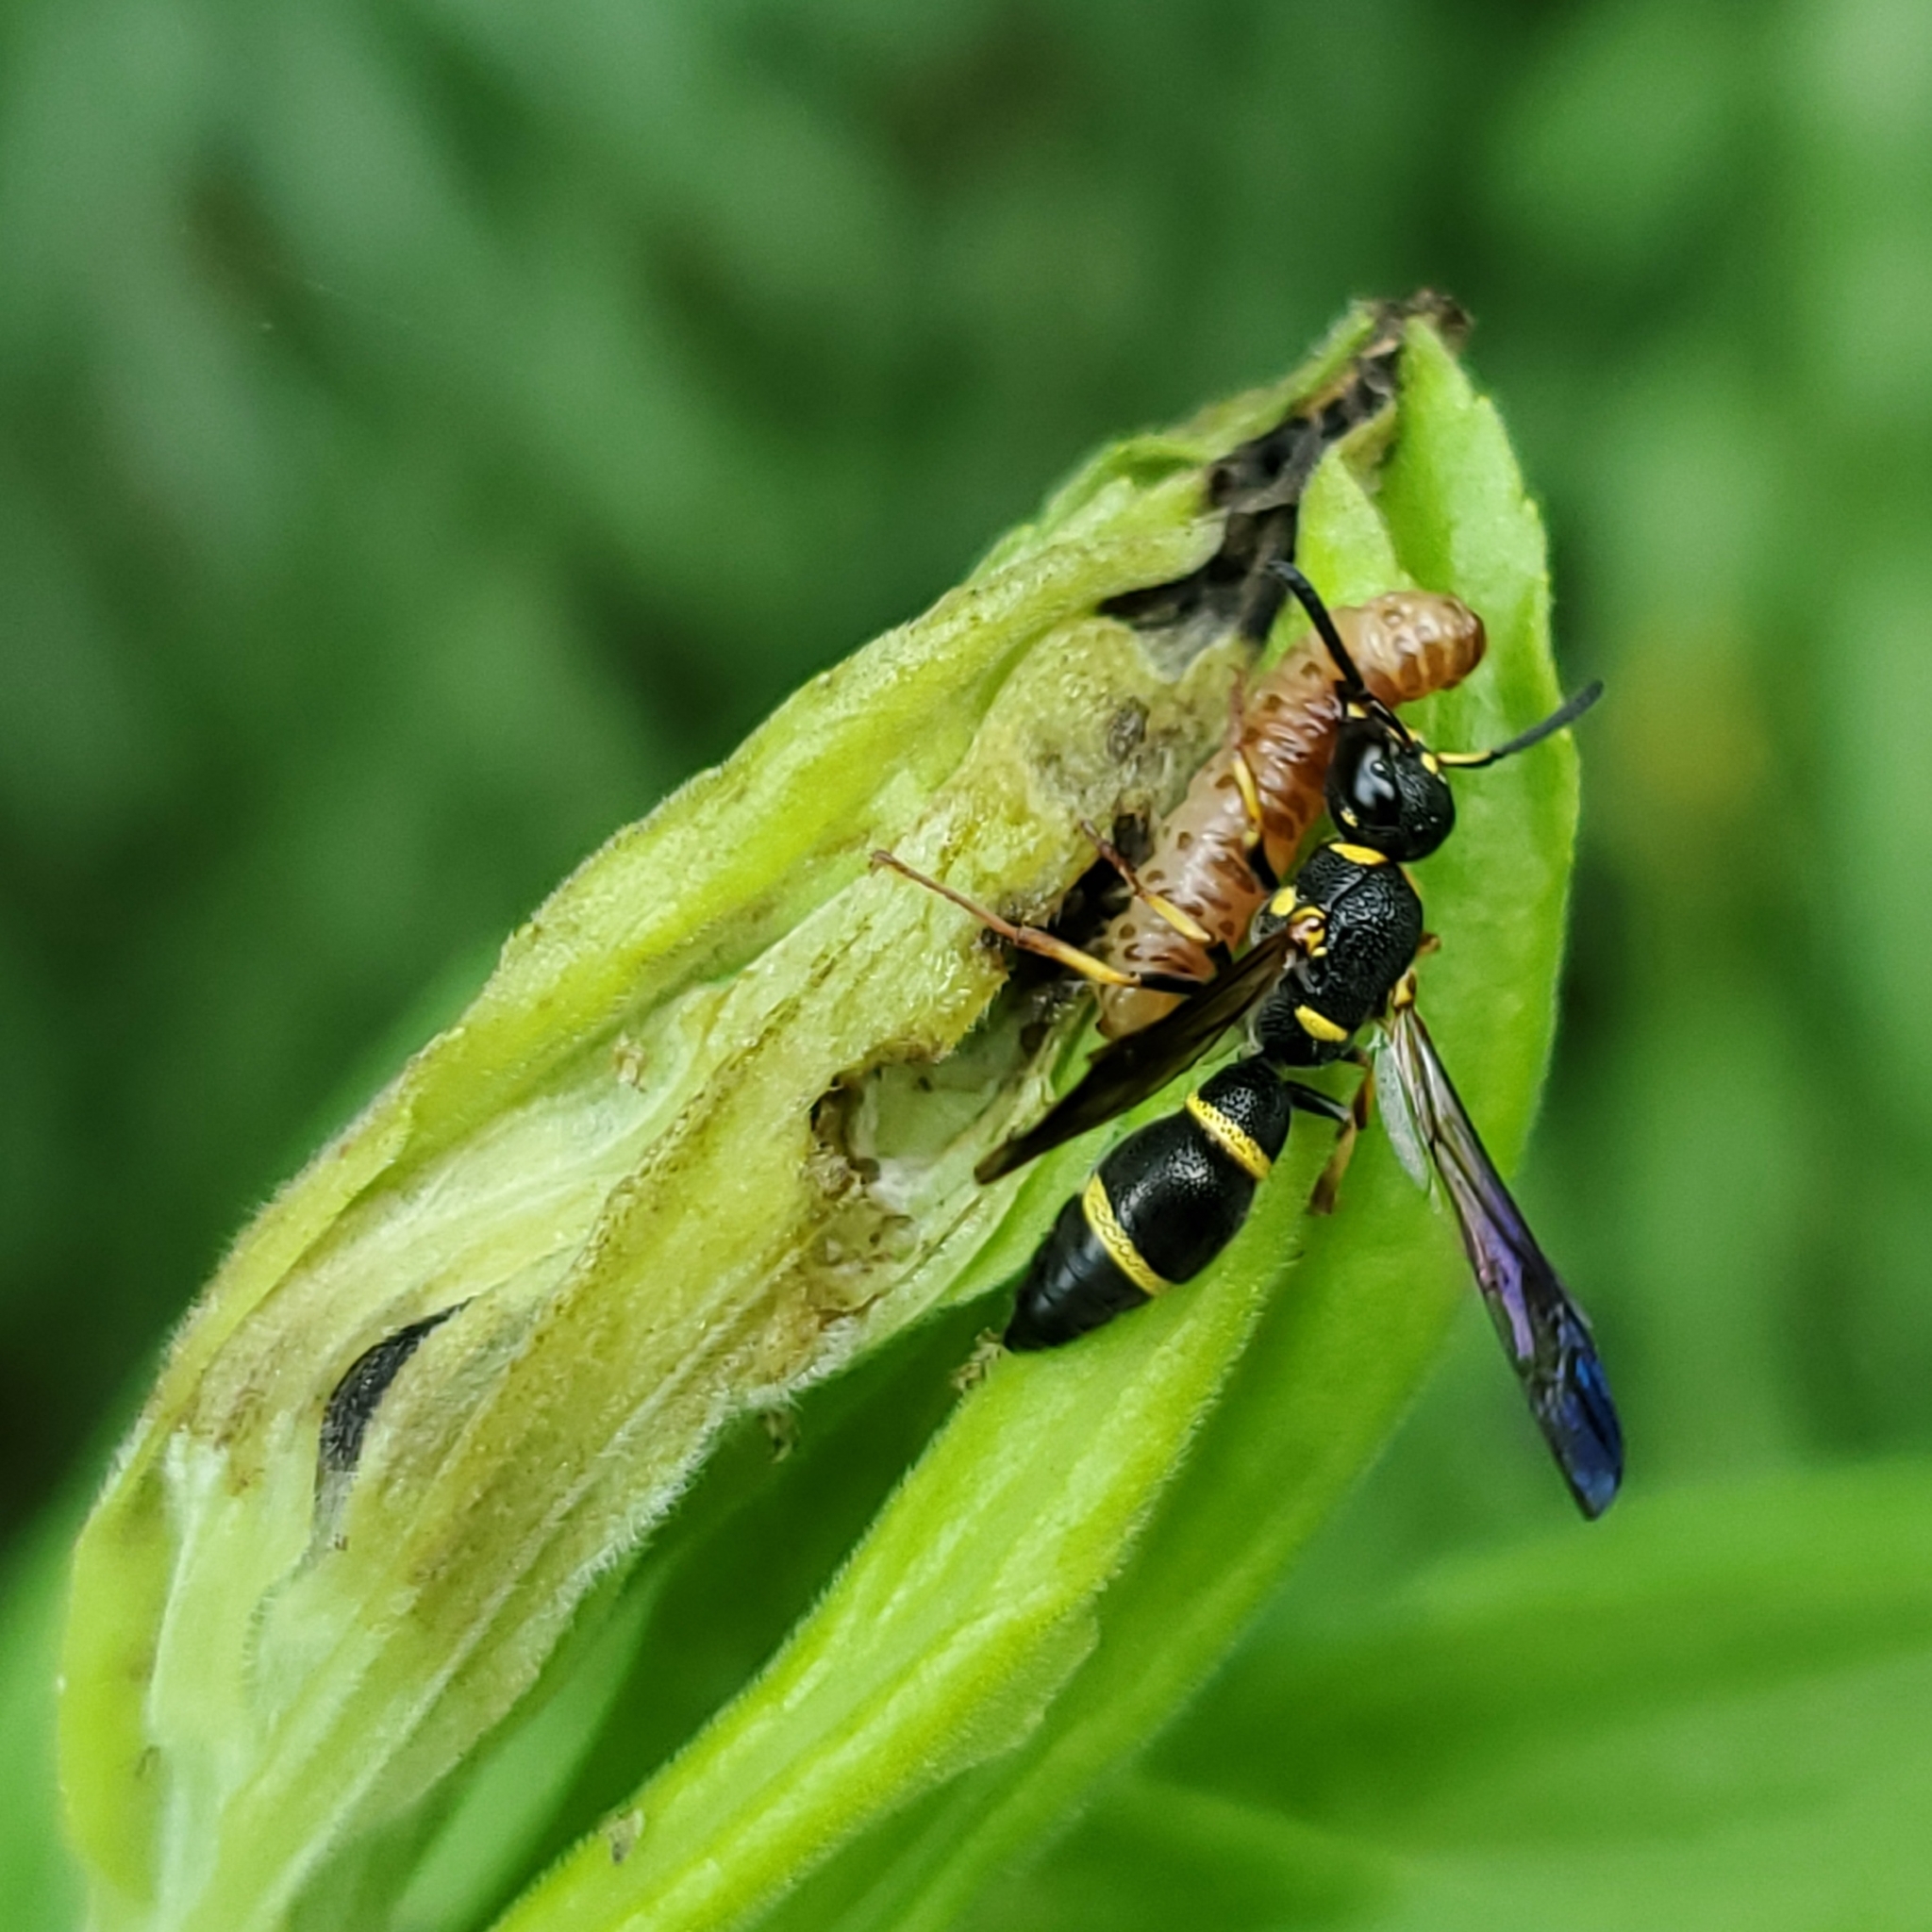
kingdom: Animalia
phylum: Arthropoda
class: Insecta
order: Hymenoptera
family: Eumenidae
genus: Parancistrocerus
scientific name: Parancistrocerus perennis
